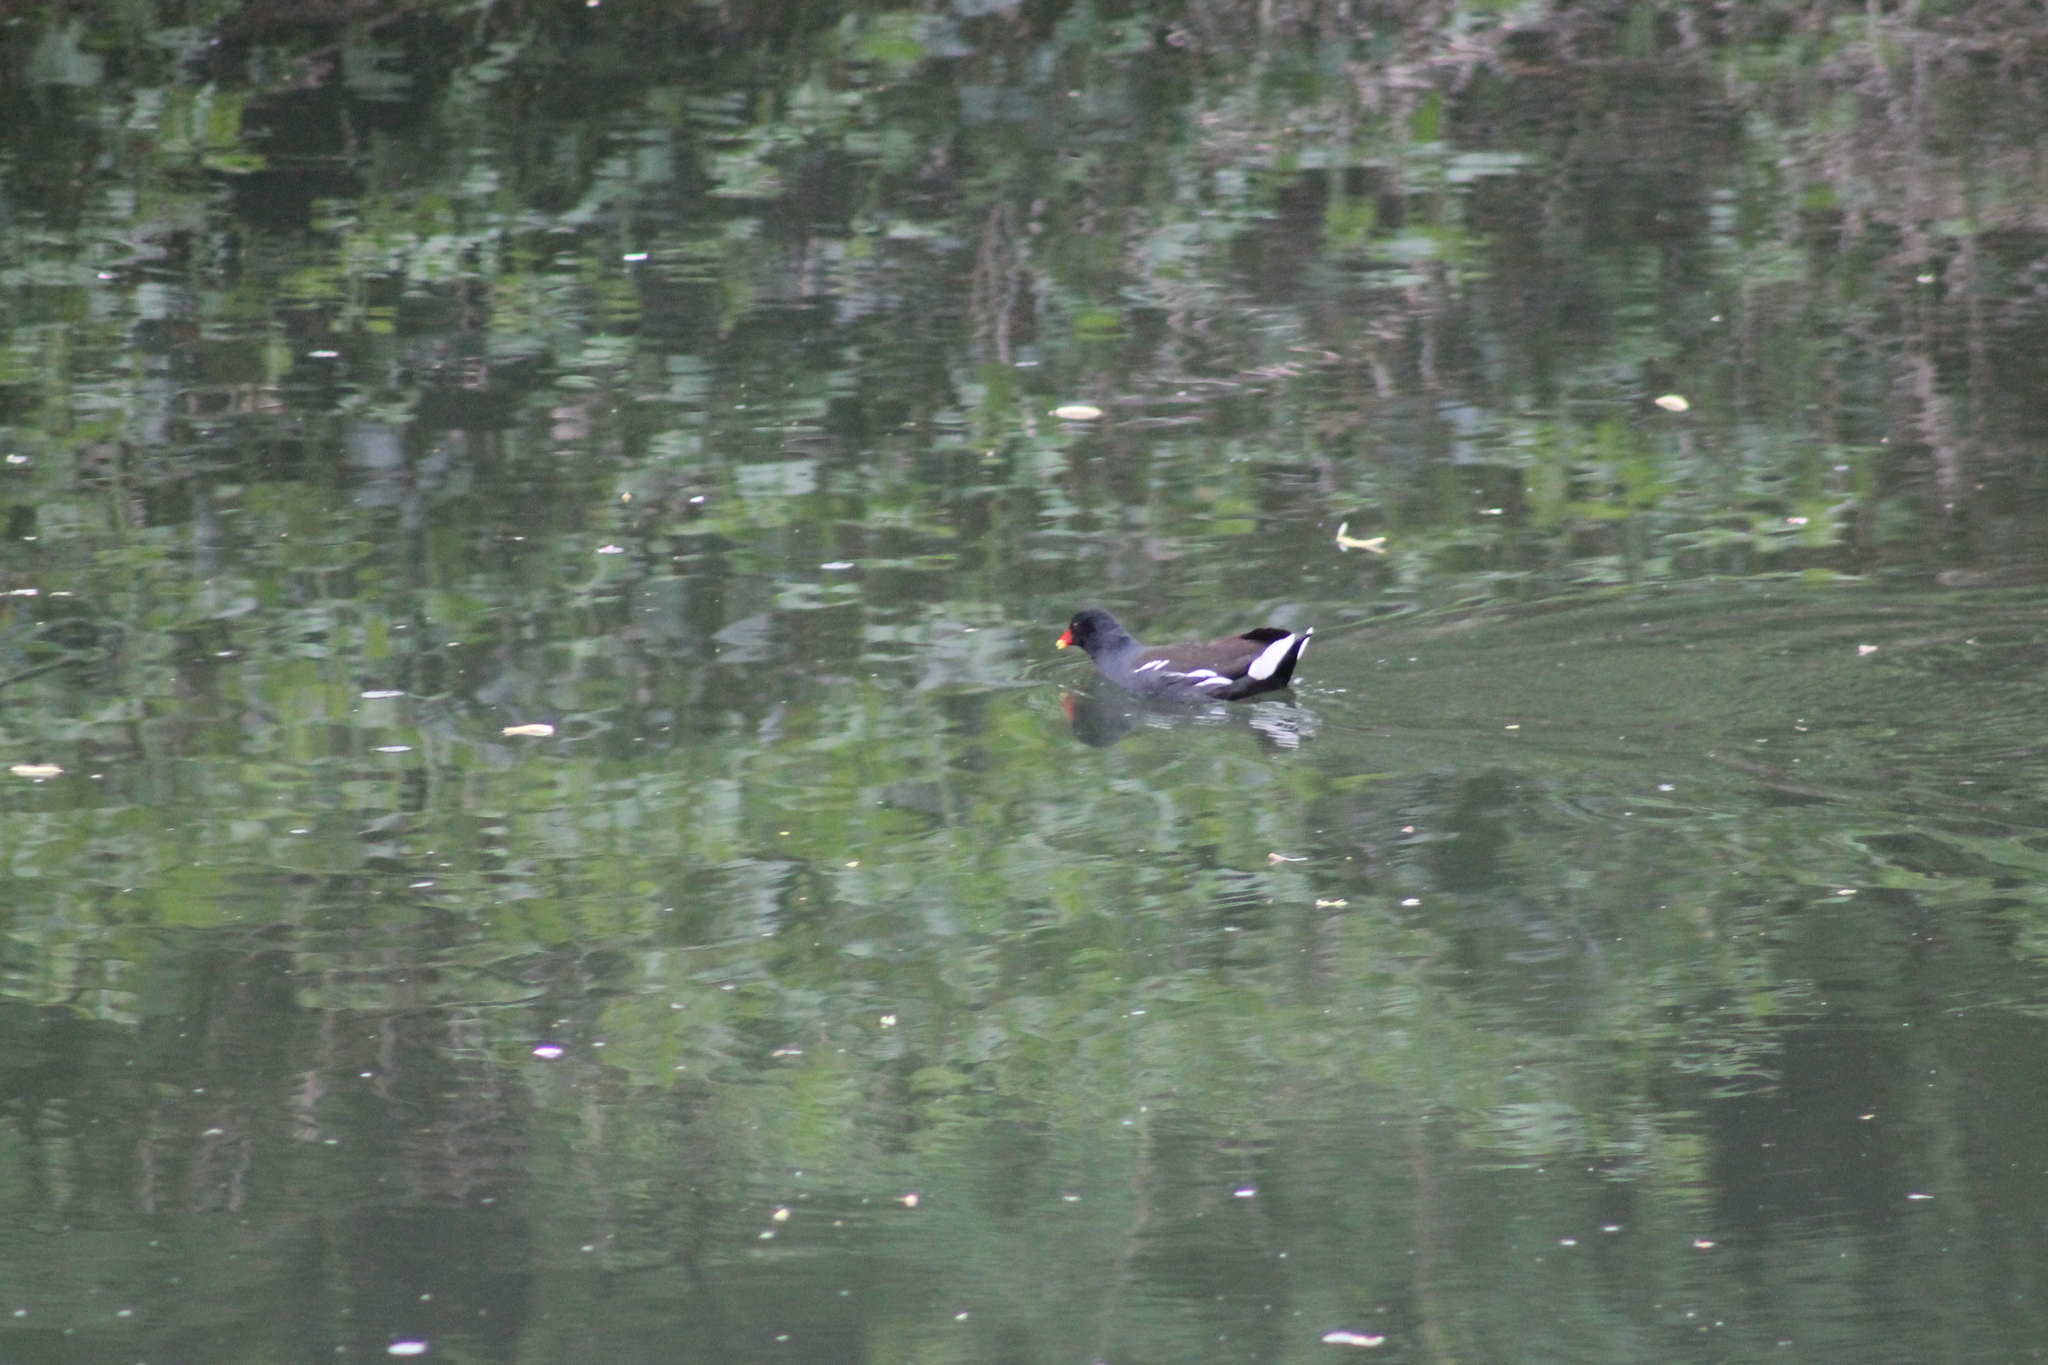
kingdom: Animalia
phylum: Chordata
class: Aves
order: Gruiformes
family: Rallidae
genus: Gallinula
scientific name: Gallinula chloropus
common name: Common moorhen
